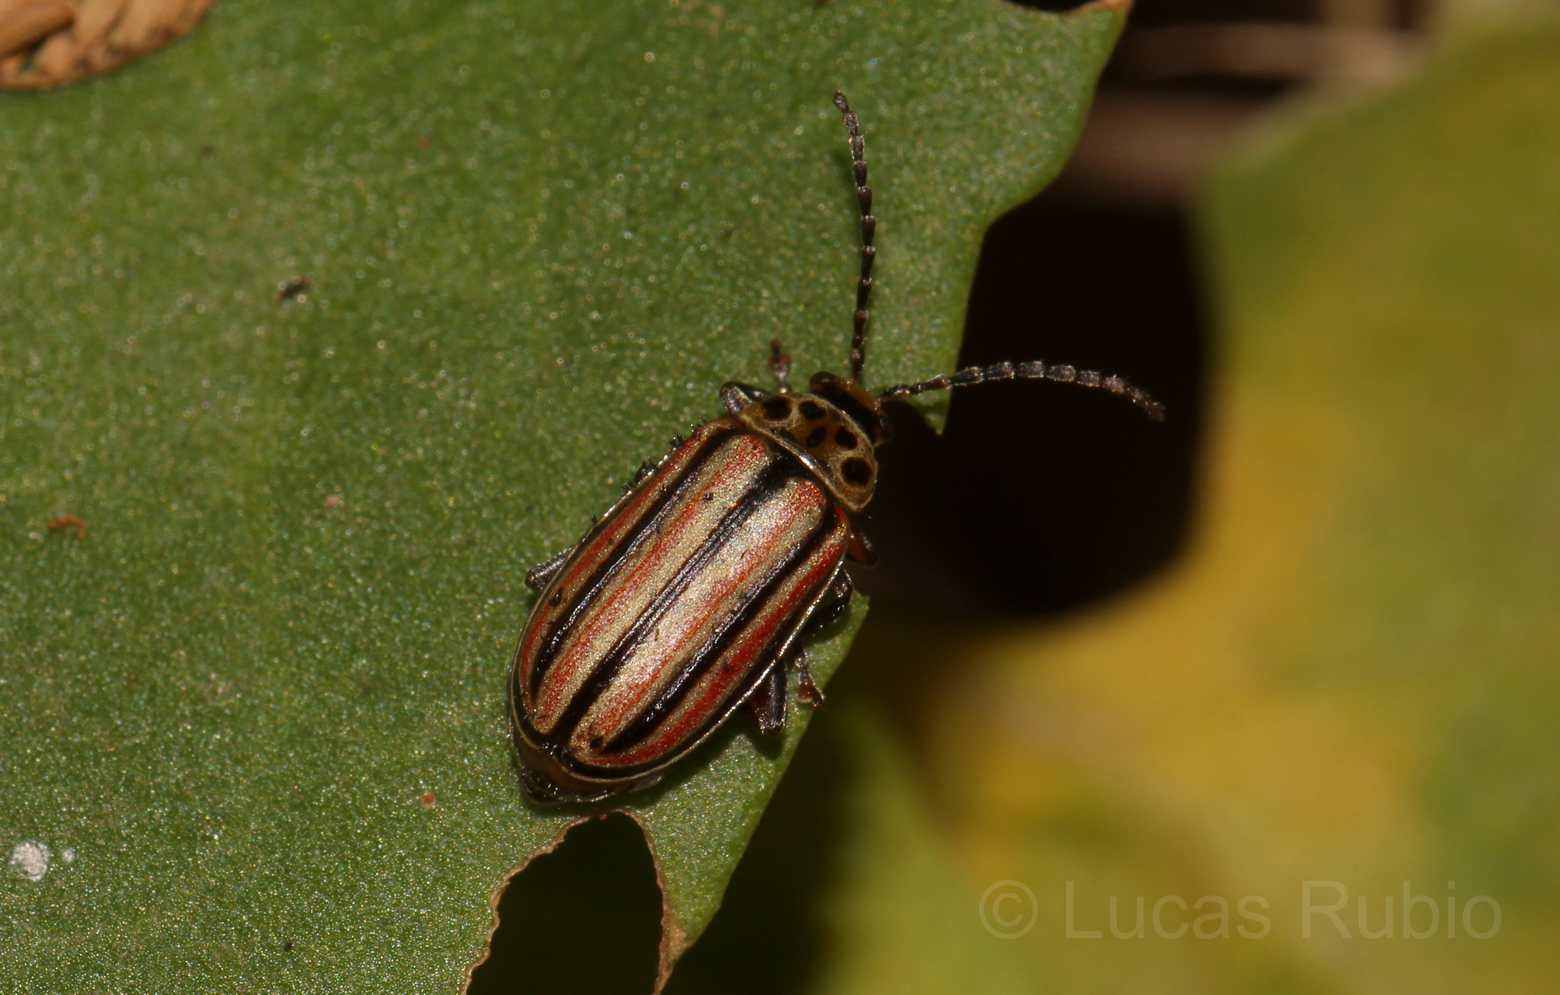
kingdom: Animalia
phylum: Arthropoda
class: Insecta
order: Coleoptera
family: Chrysomelidae
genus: Disonycha
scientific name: Disonycha
